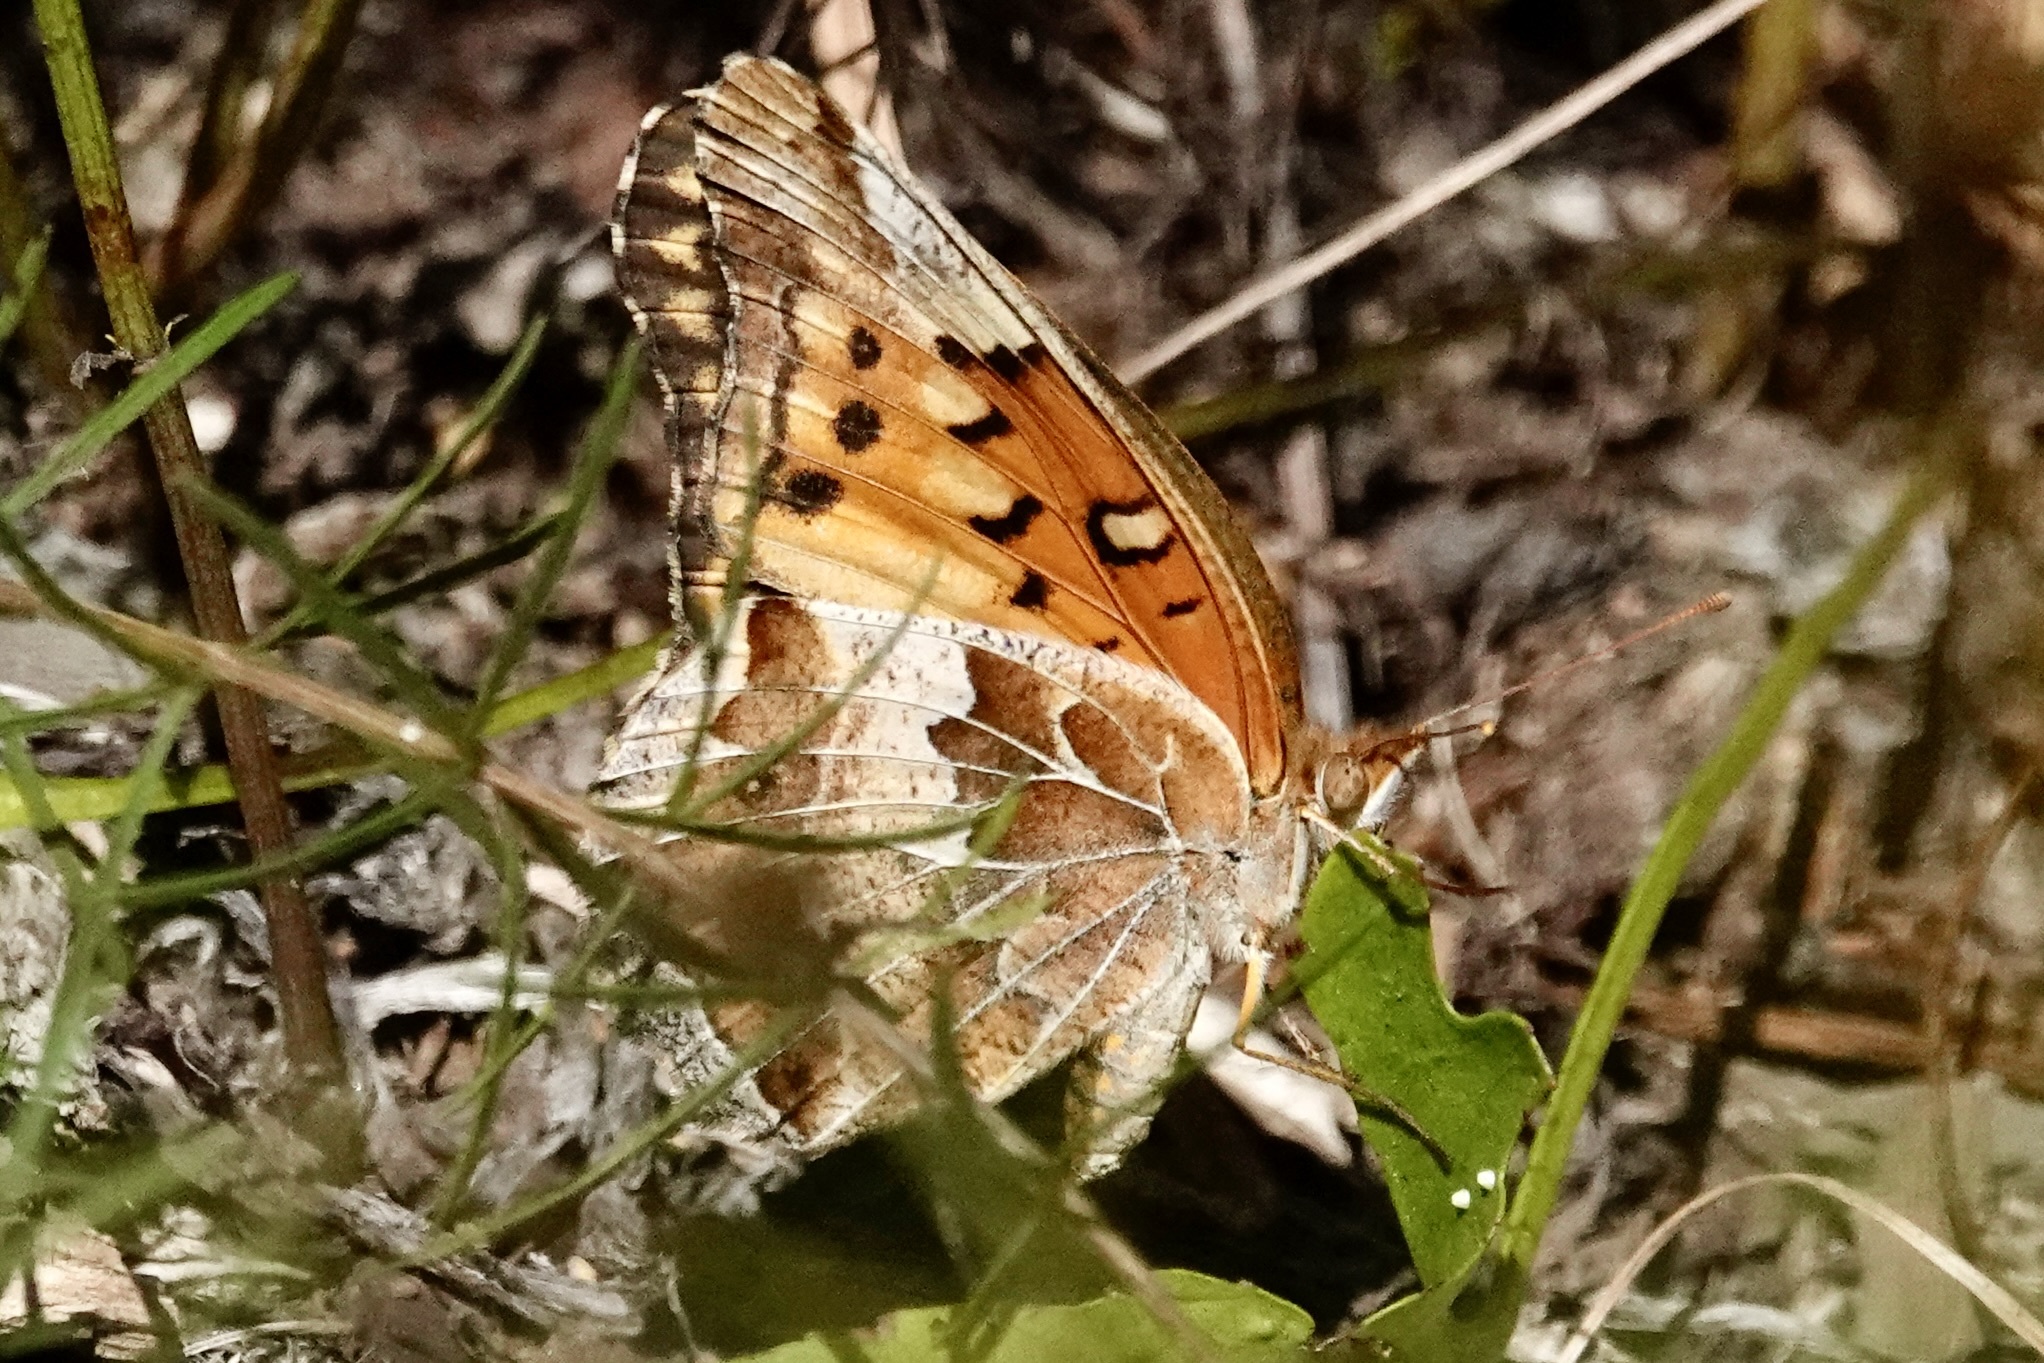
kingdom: Animalia
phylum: Arthropoda
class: Insecta
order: Lepidoptera
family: Nymphalidae
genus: Euptoieta
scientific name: Euptoieta claudia
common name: Variegated fritillary
